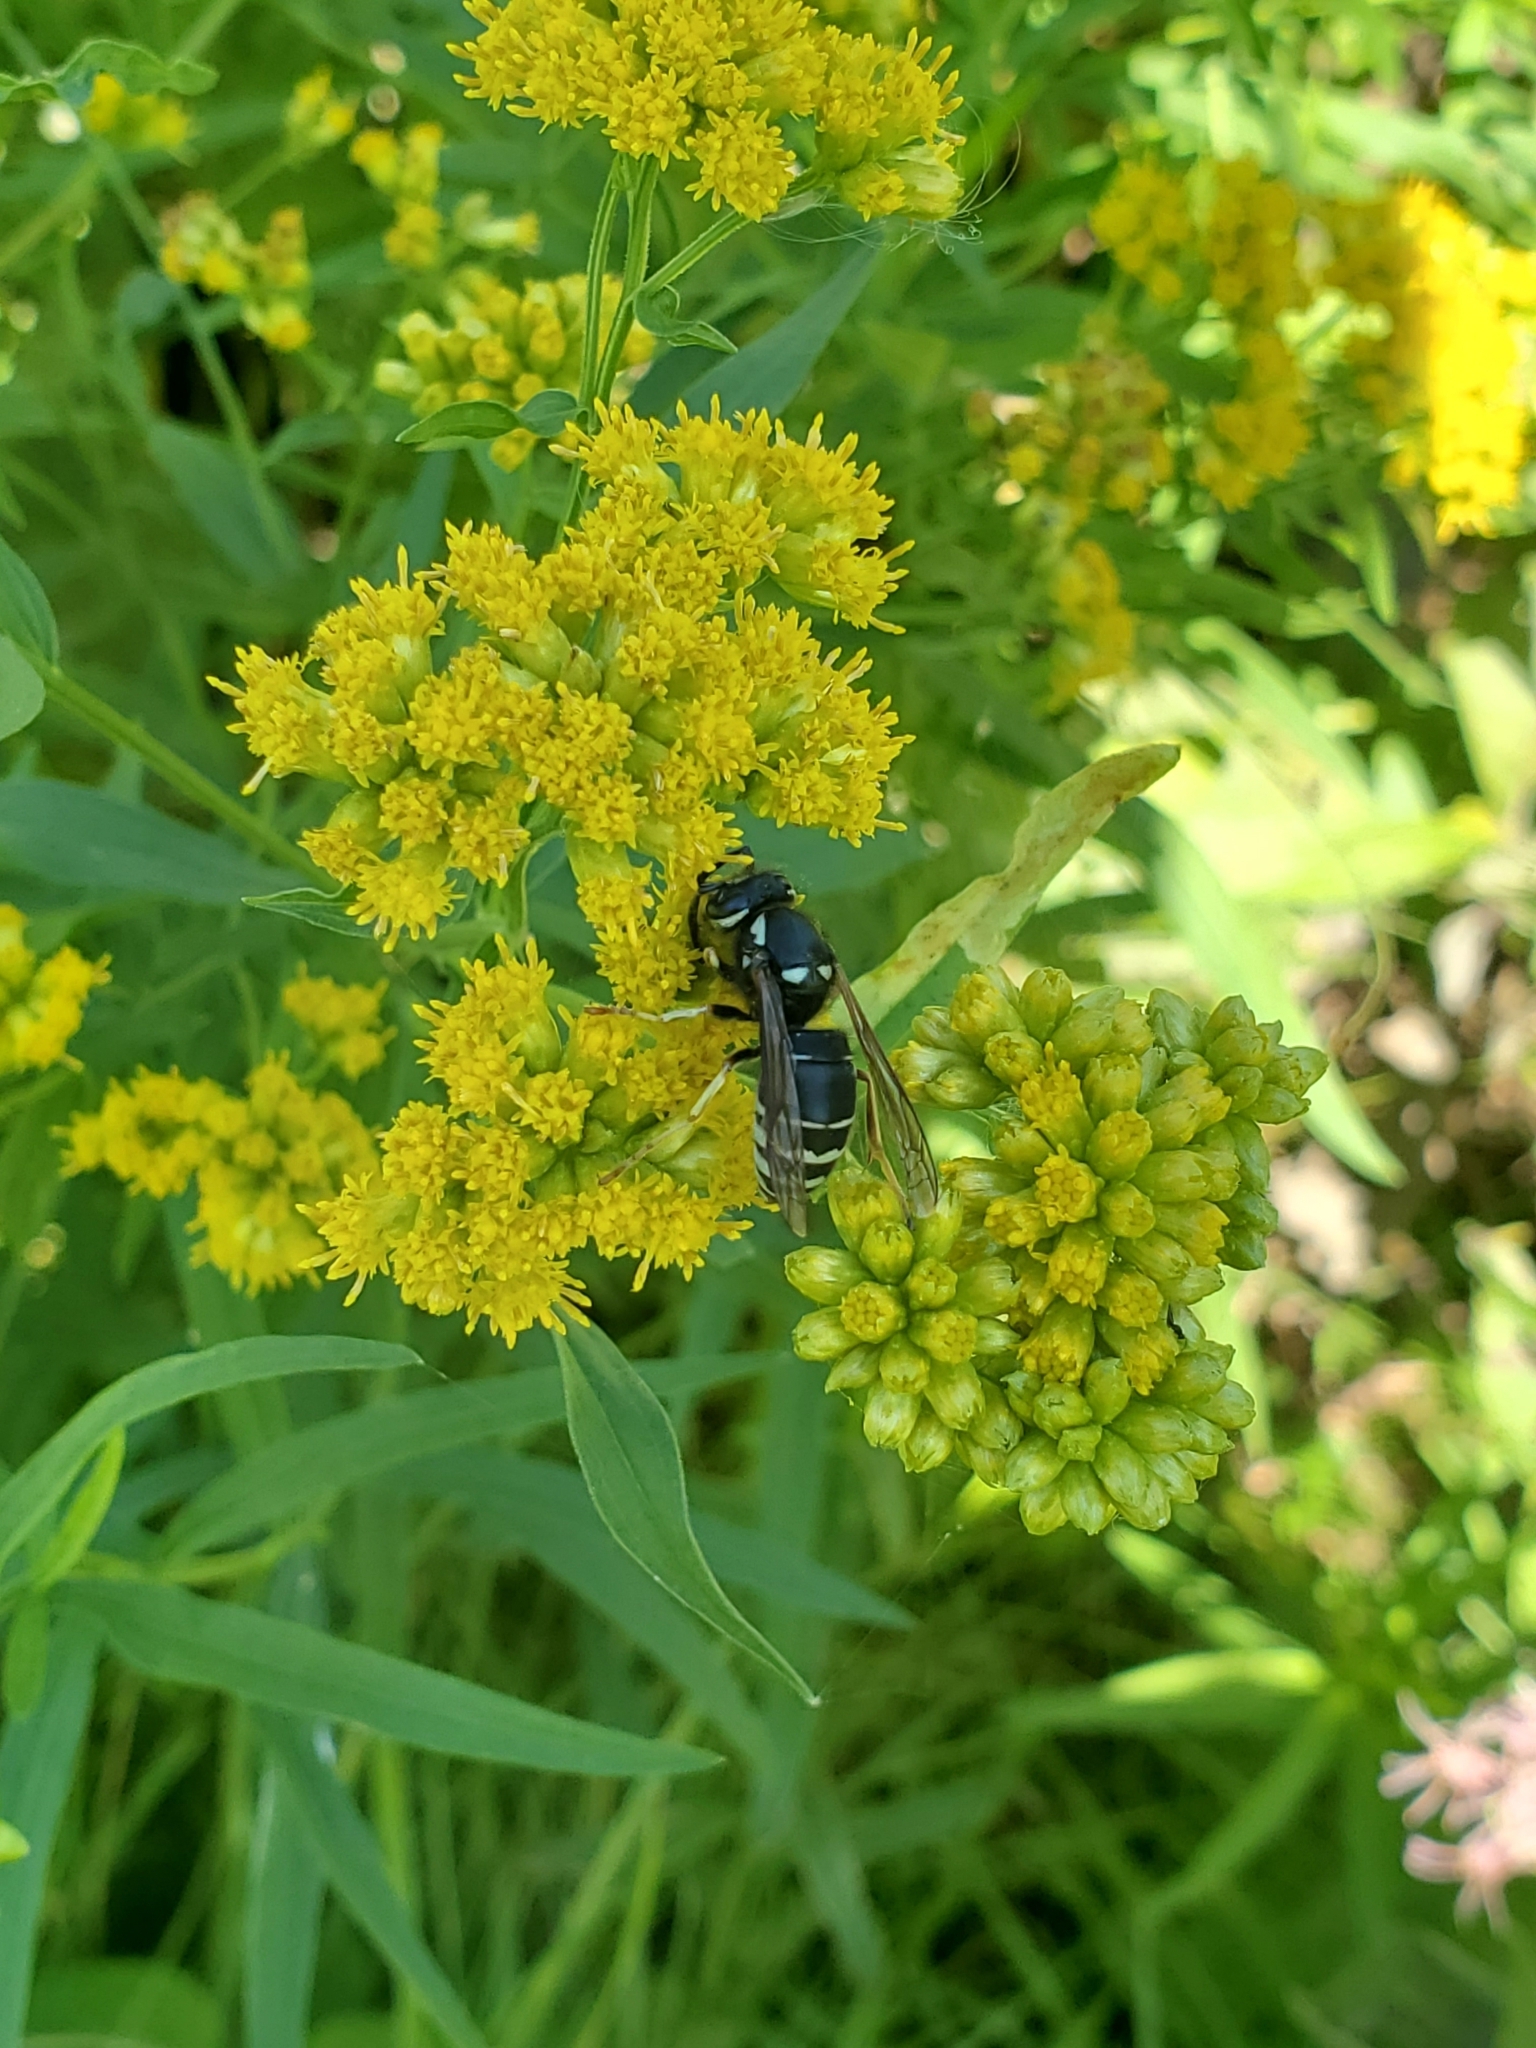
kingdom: Animalia
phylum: Arthropoda
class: Insecta
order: Hymenoptera
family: Vespidae
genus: Vespula
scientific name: Vespula consobrina
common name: Blackjacket
